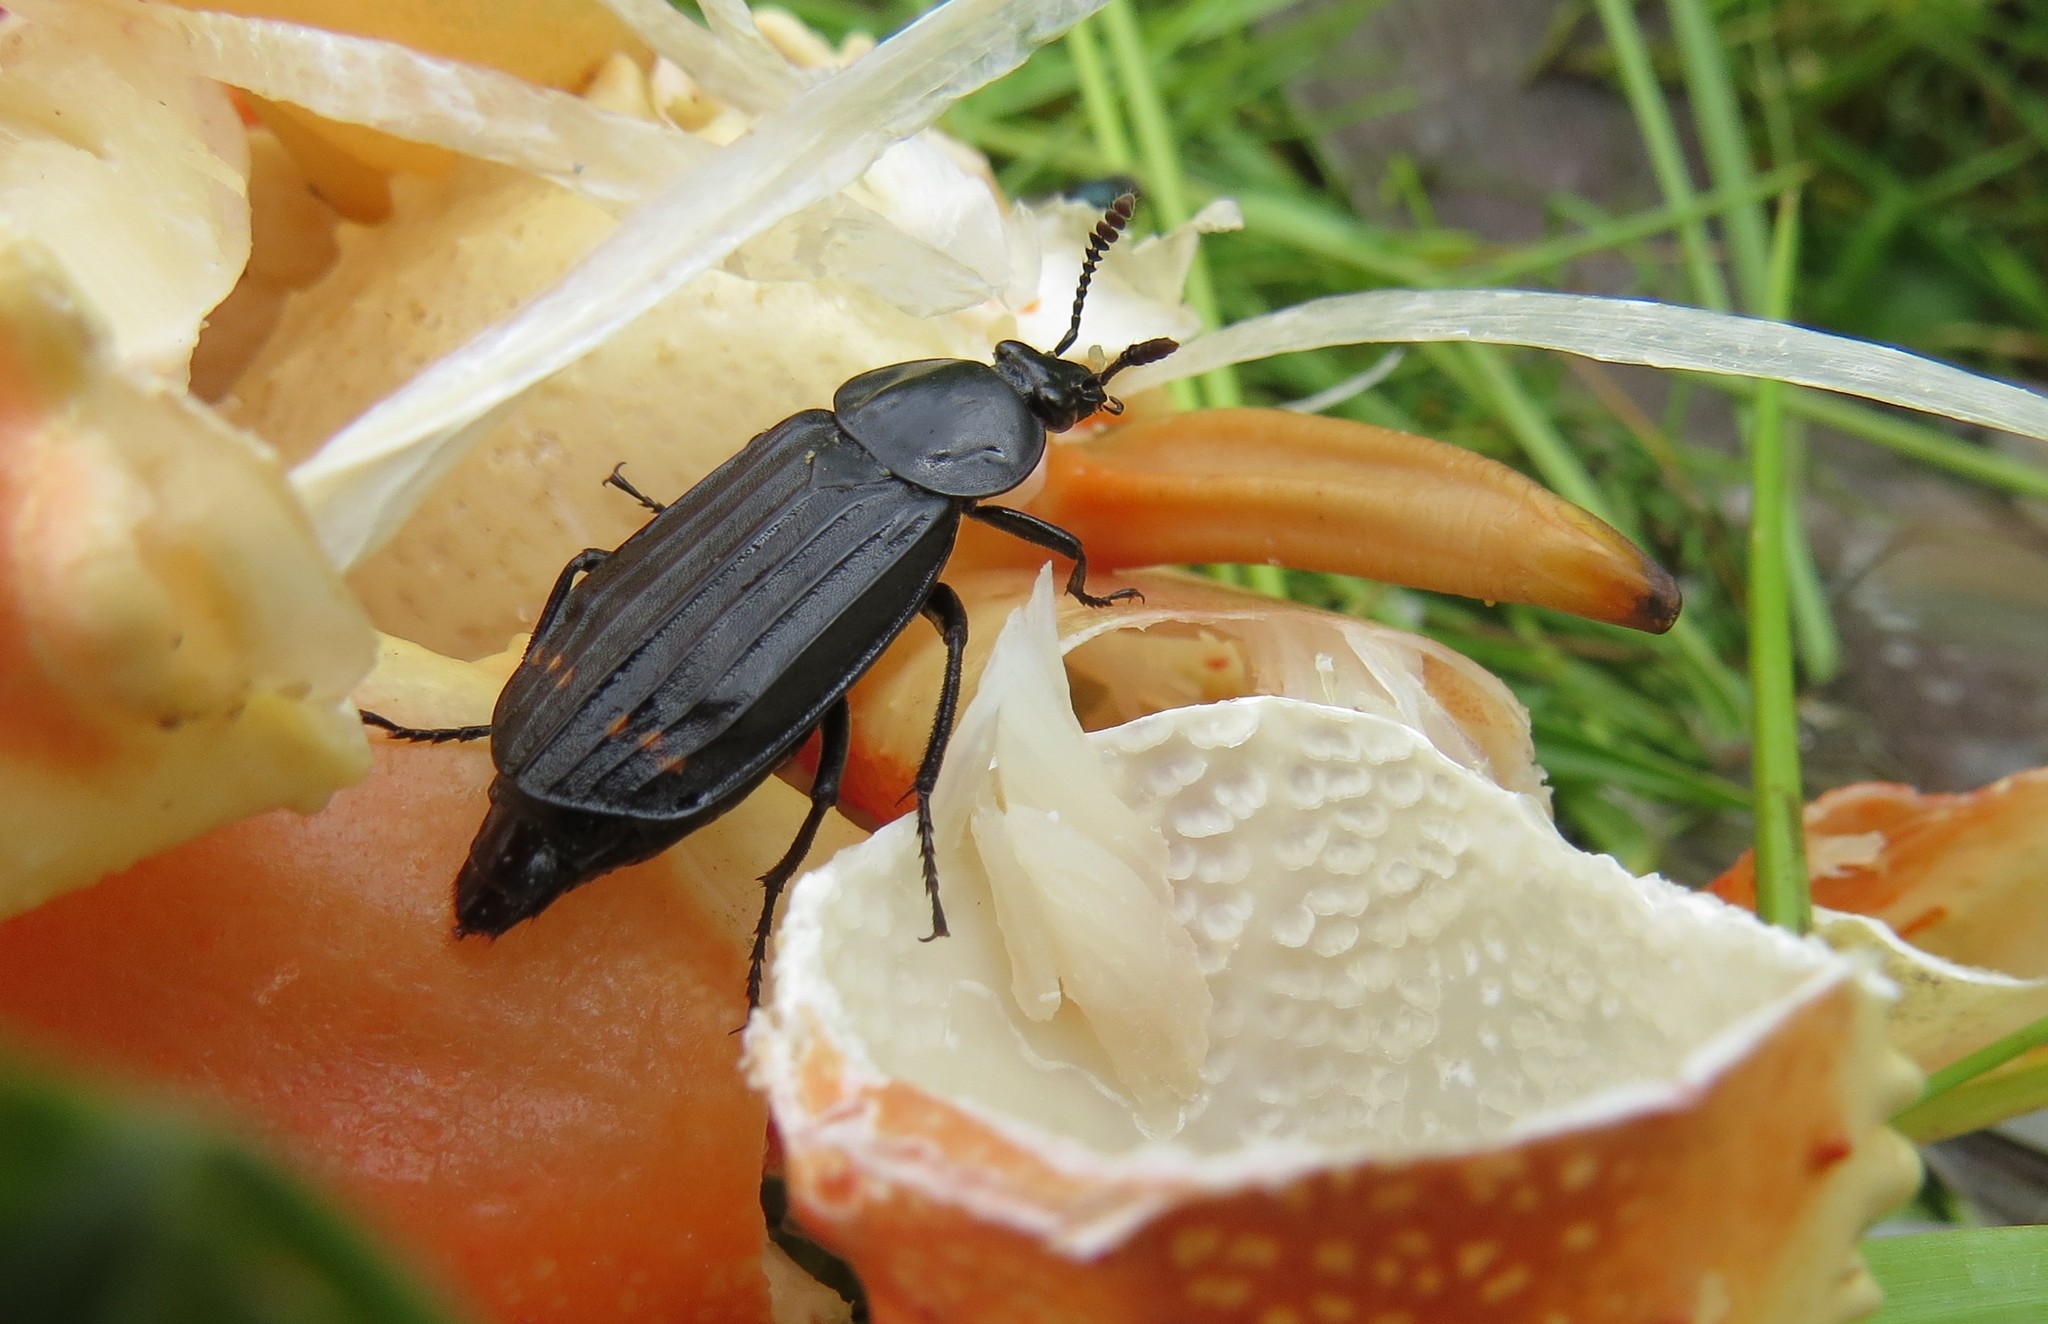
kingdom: Animalia
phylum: Arthropoda
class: Insecta
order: Coleoptera
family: Staphylinidae
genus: Necrodes
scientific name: Necrodes surinamensis
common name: Red-lined carrion beetle
